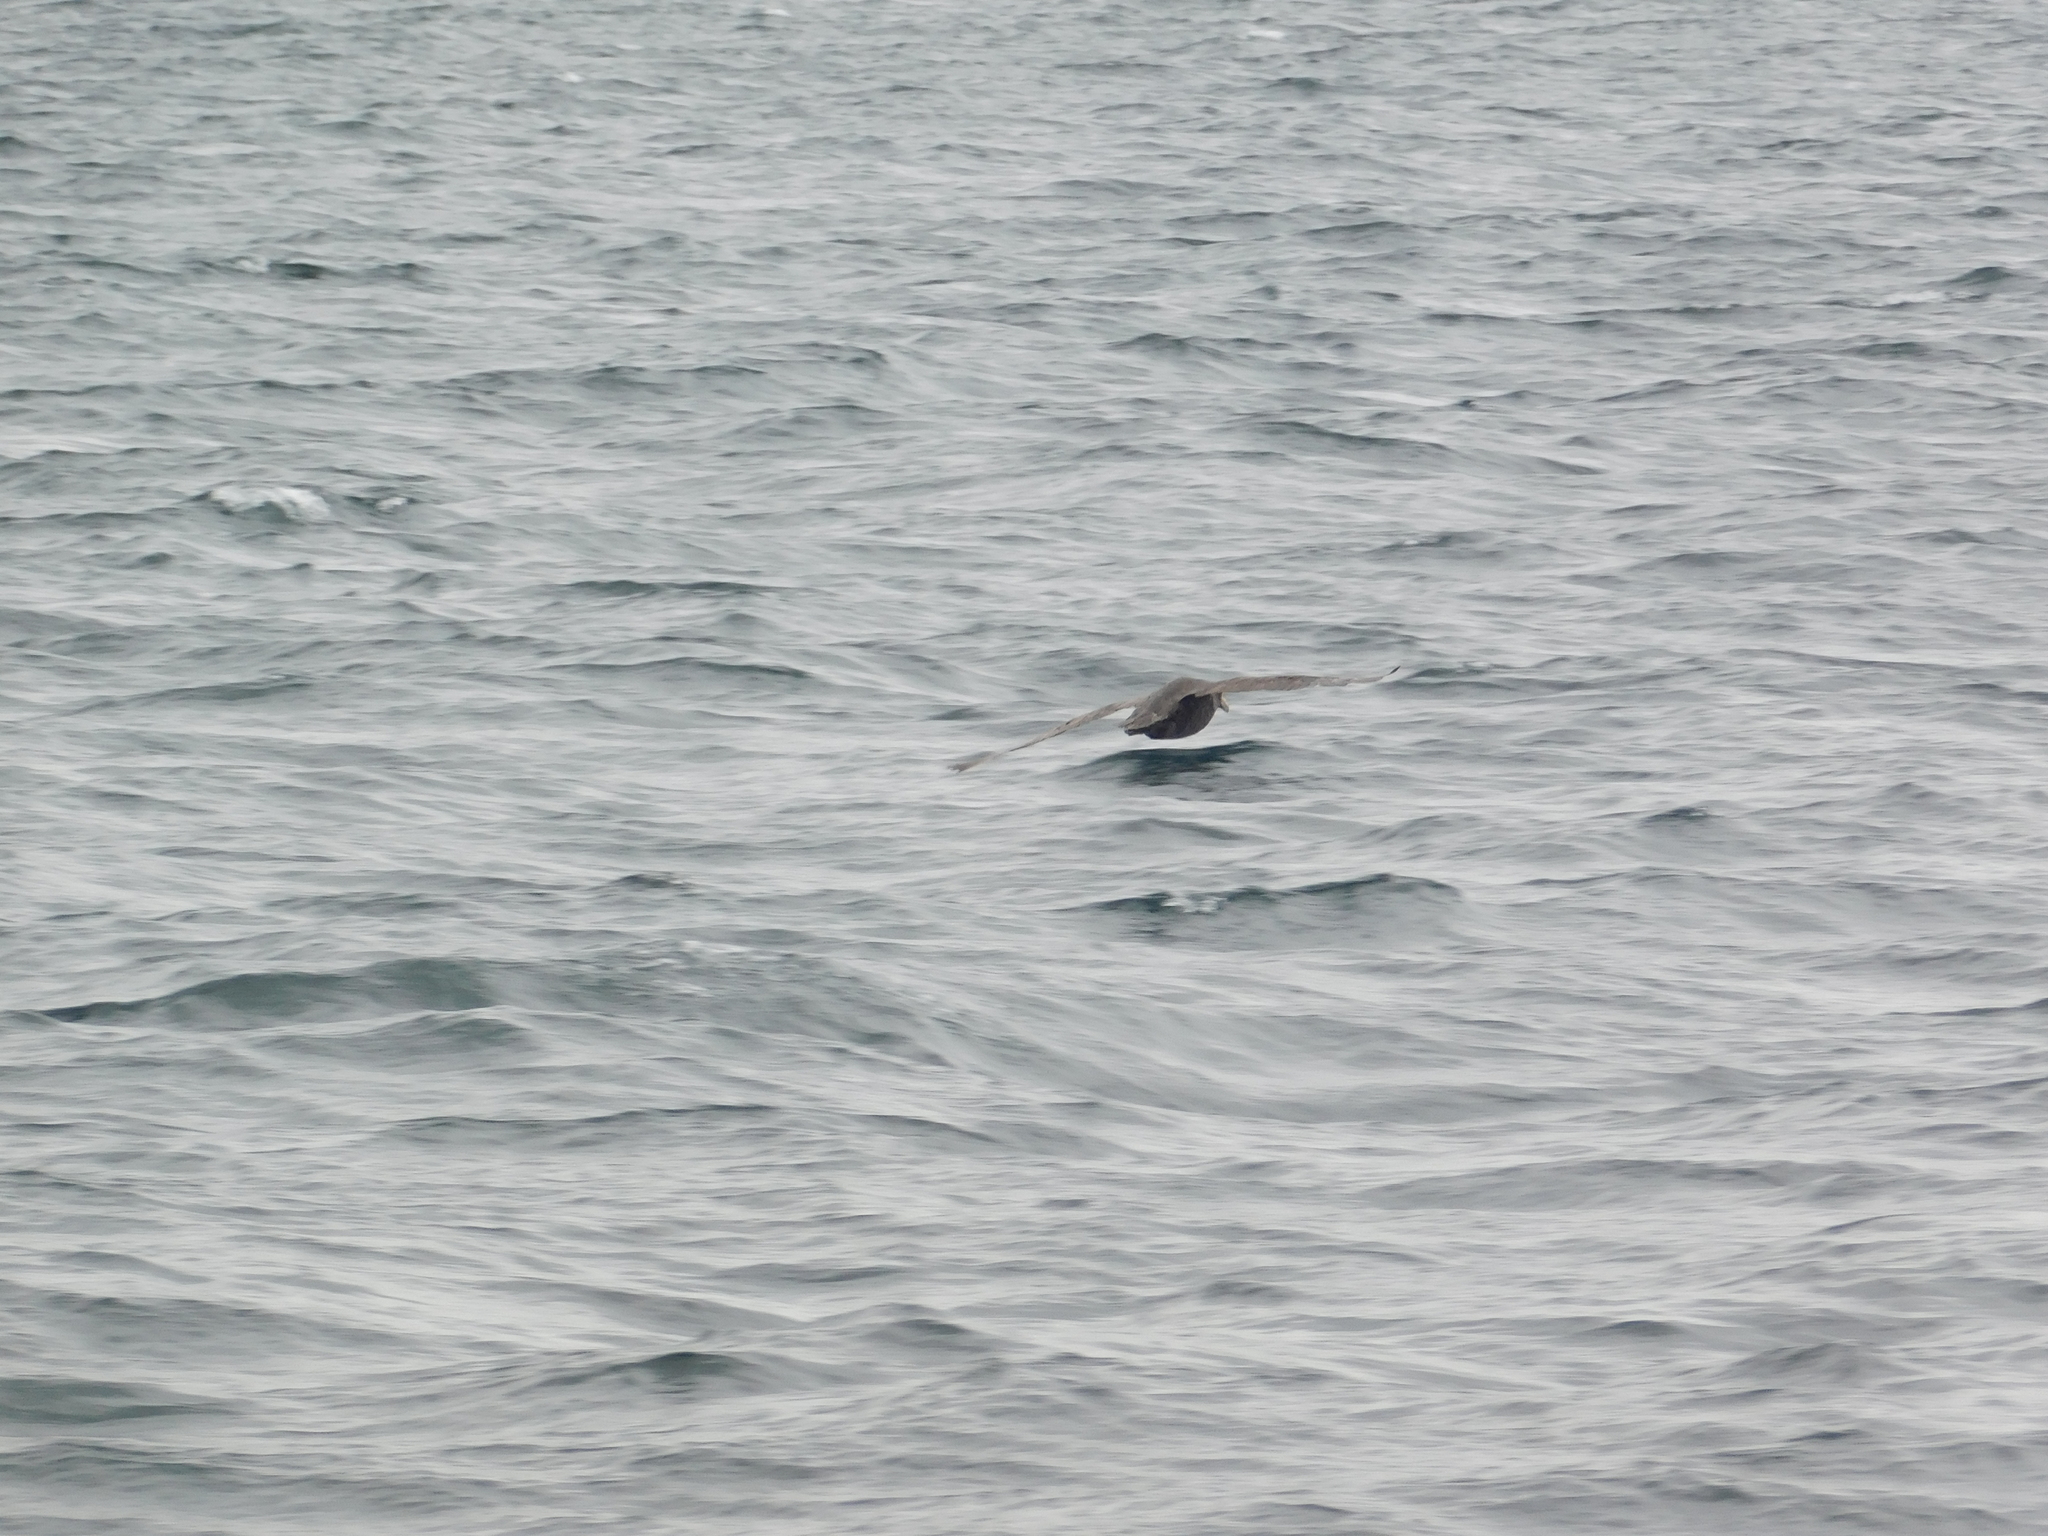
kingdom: Animalia
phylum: Chordata
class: Aves
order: Procellariiformes
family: Procellariidae
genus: Macronectes
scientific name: Macronectes giganteus
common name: Southern giant petrel
